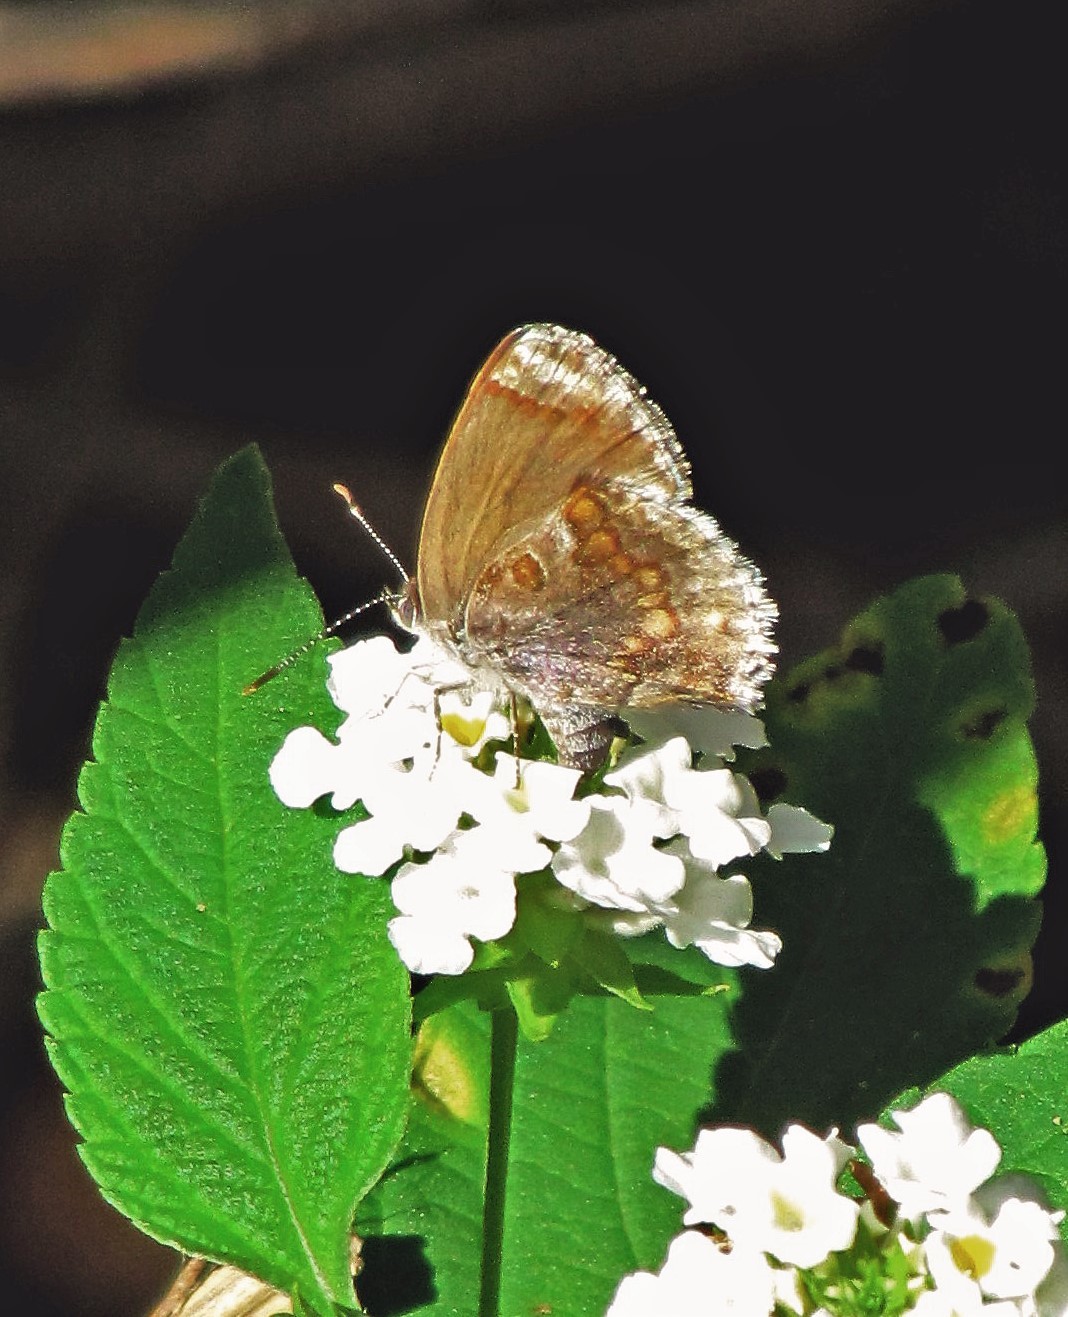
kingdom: Animalia
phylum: Arthropoda
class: Insecta
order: Lepidoptera
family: Lycaenidae
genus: Strymon
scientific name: Strymon bazochii
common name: Lantana scrub-hairstreak
